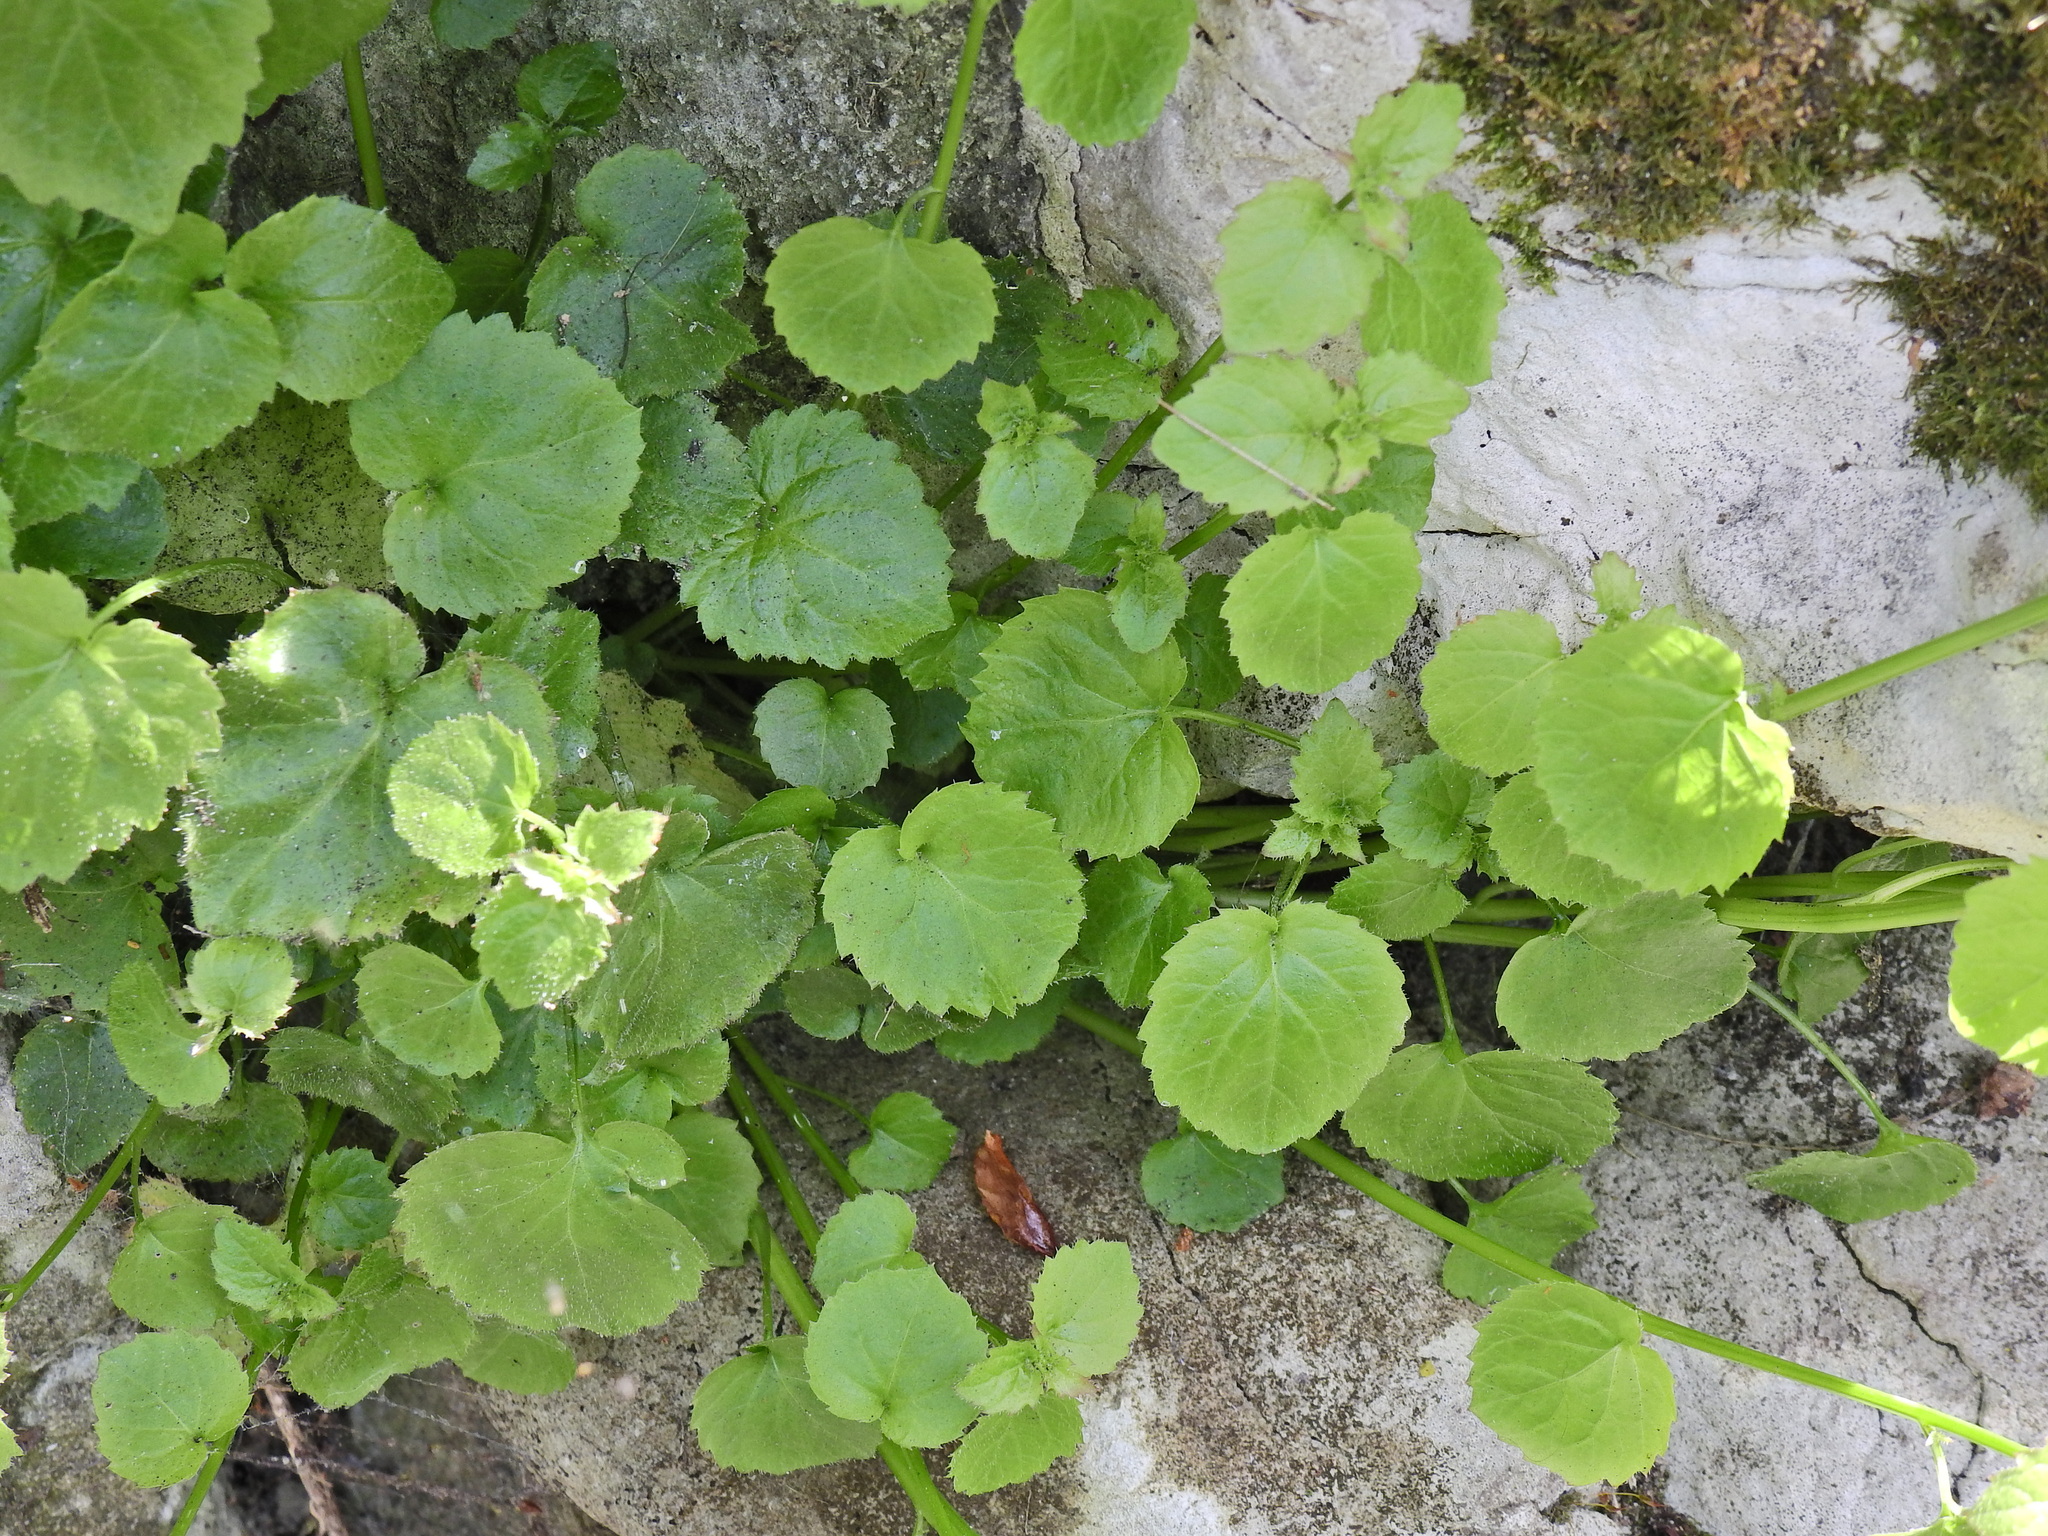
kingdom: Plantae
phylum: Tracheophyta
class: Magnoliopsida
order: Asterales
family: Campanulaceae
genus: Campanula
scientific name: Campanula poscharskyana
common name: Trailing bellflower
